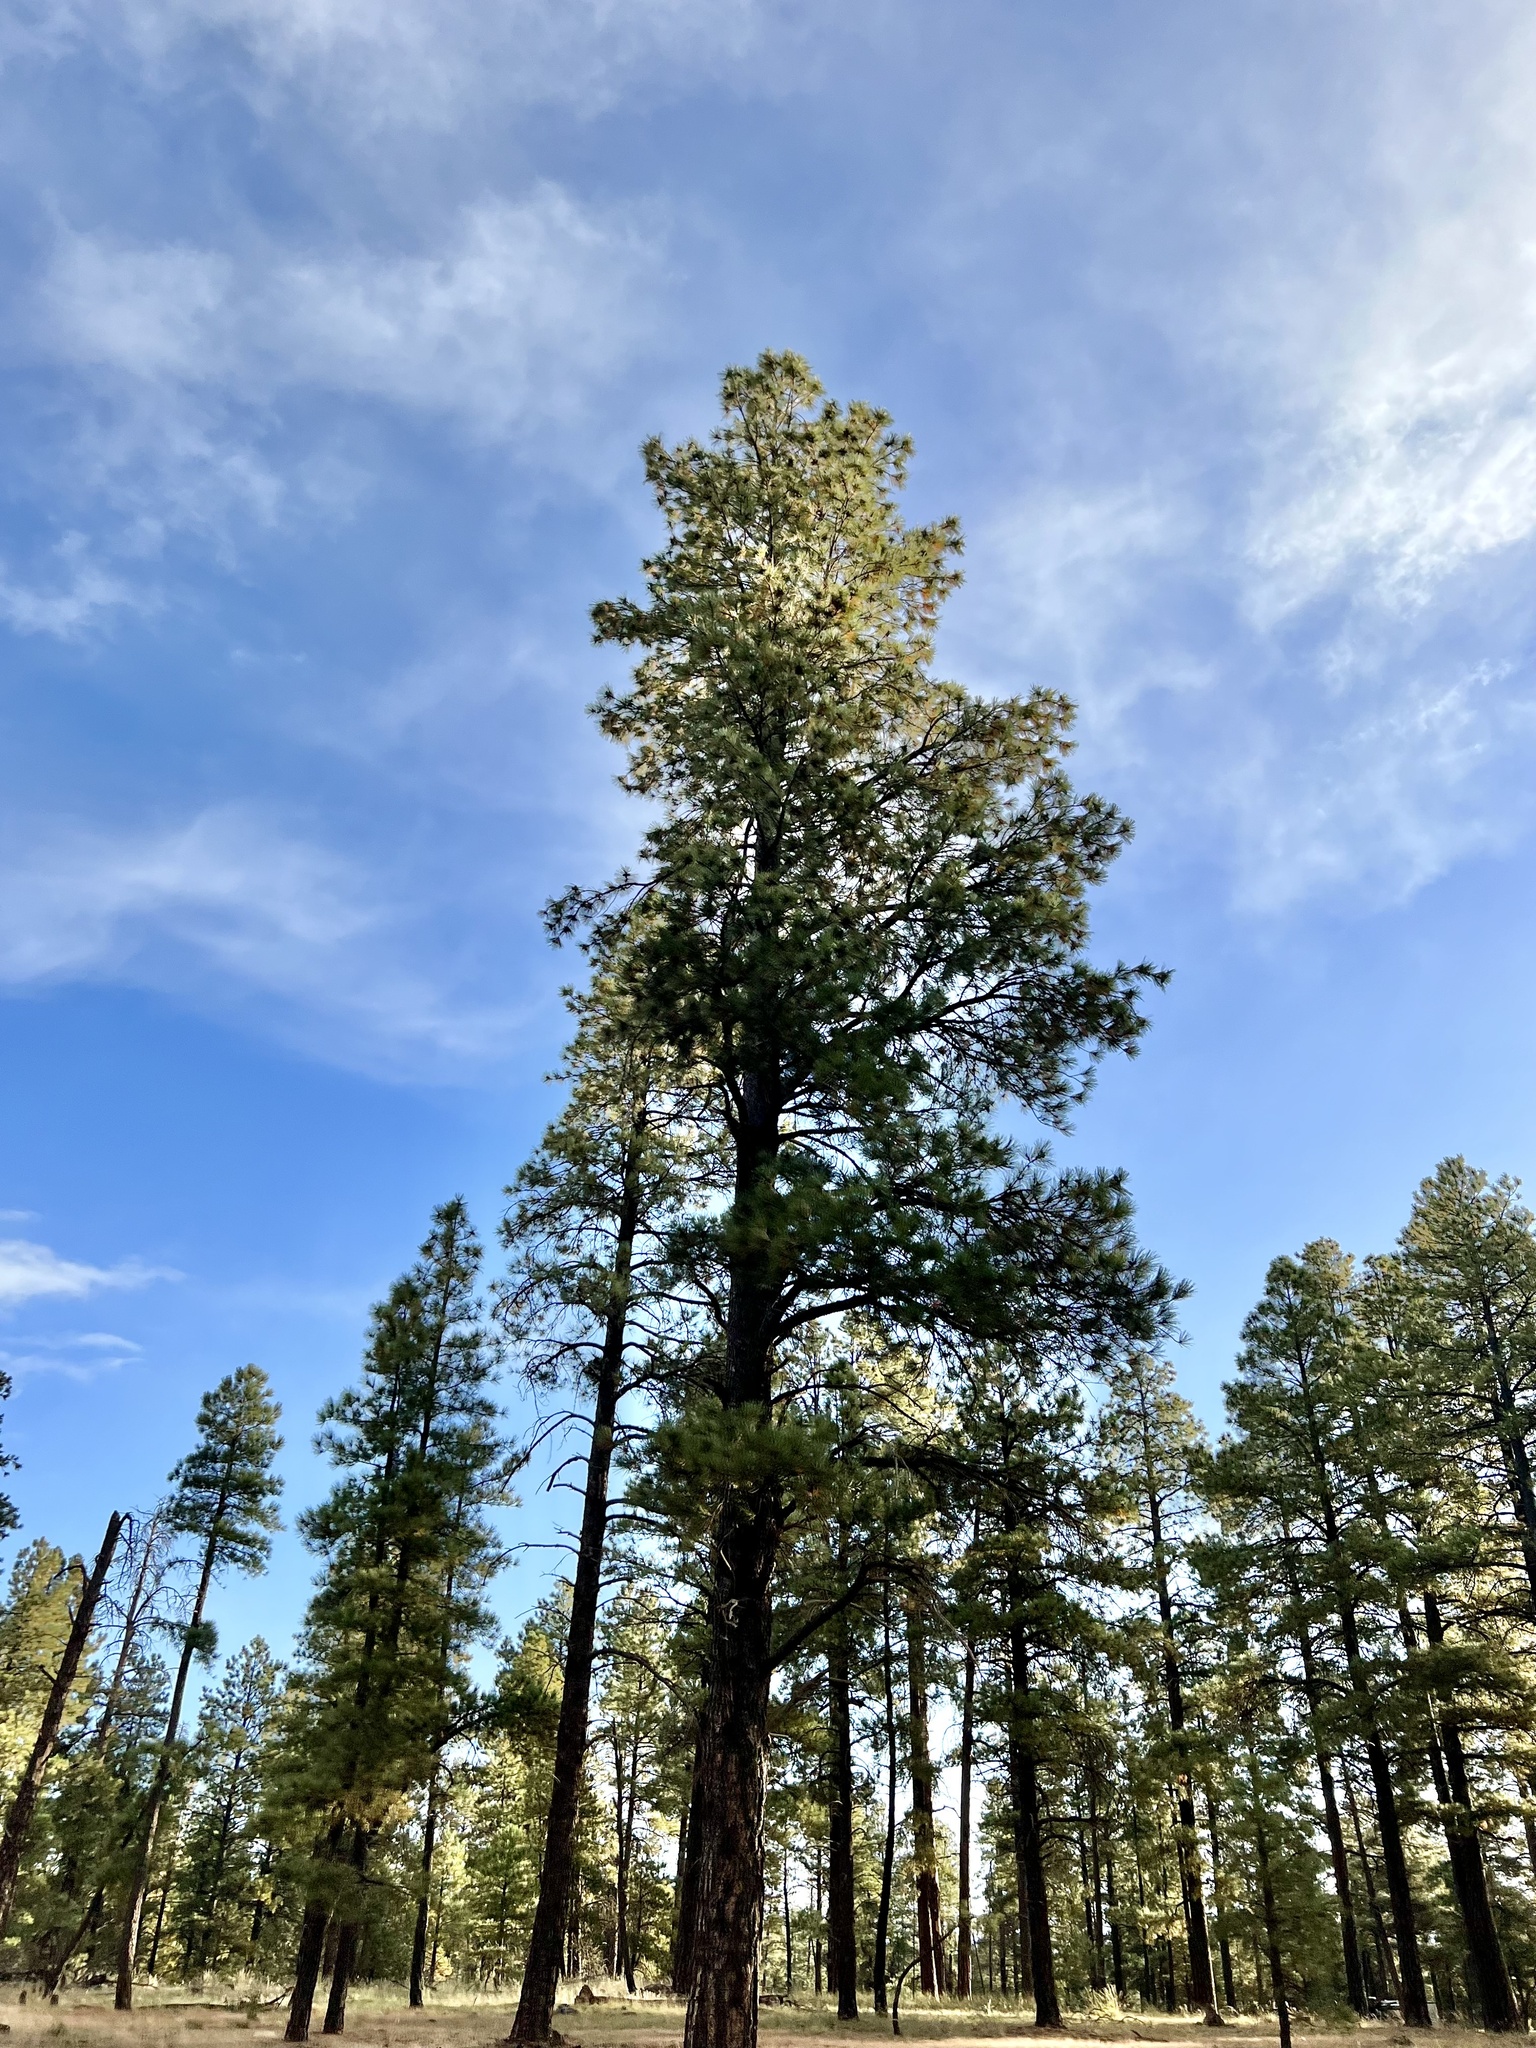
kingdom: Plantae
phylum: Tracheophyta
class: Pinopsida
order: Pinales
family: Pinaceae
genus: Pinus
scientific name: Pinus ponderosa
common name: Western yellow-pine
